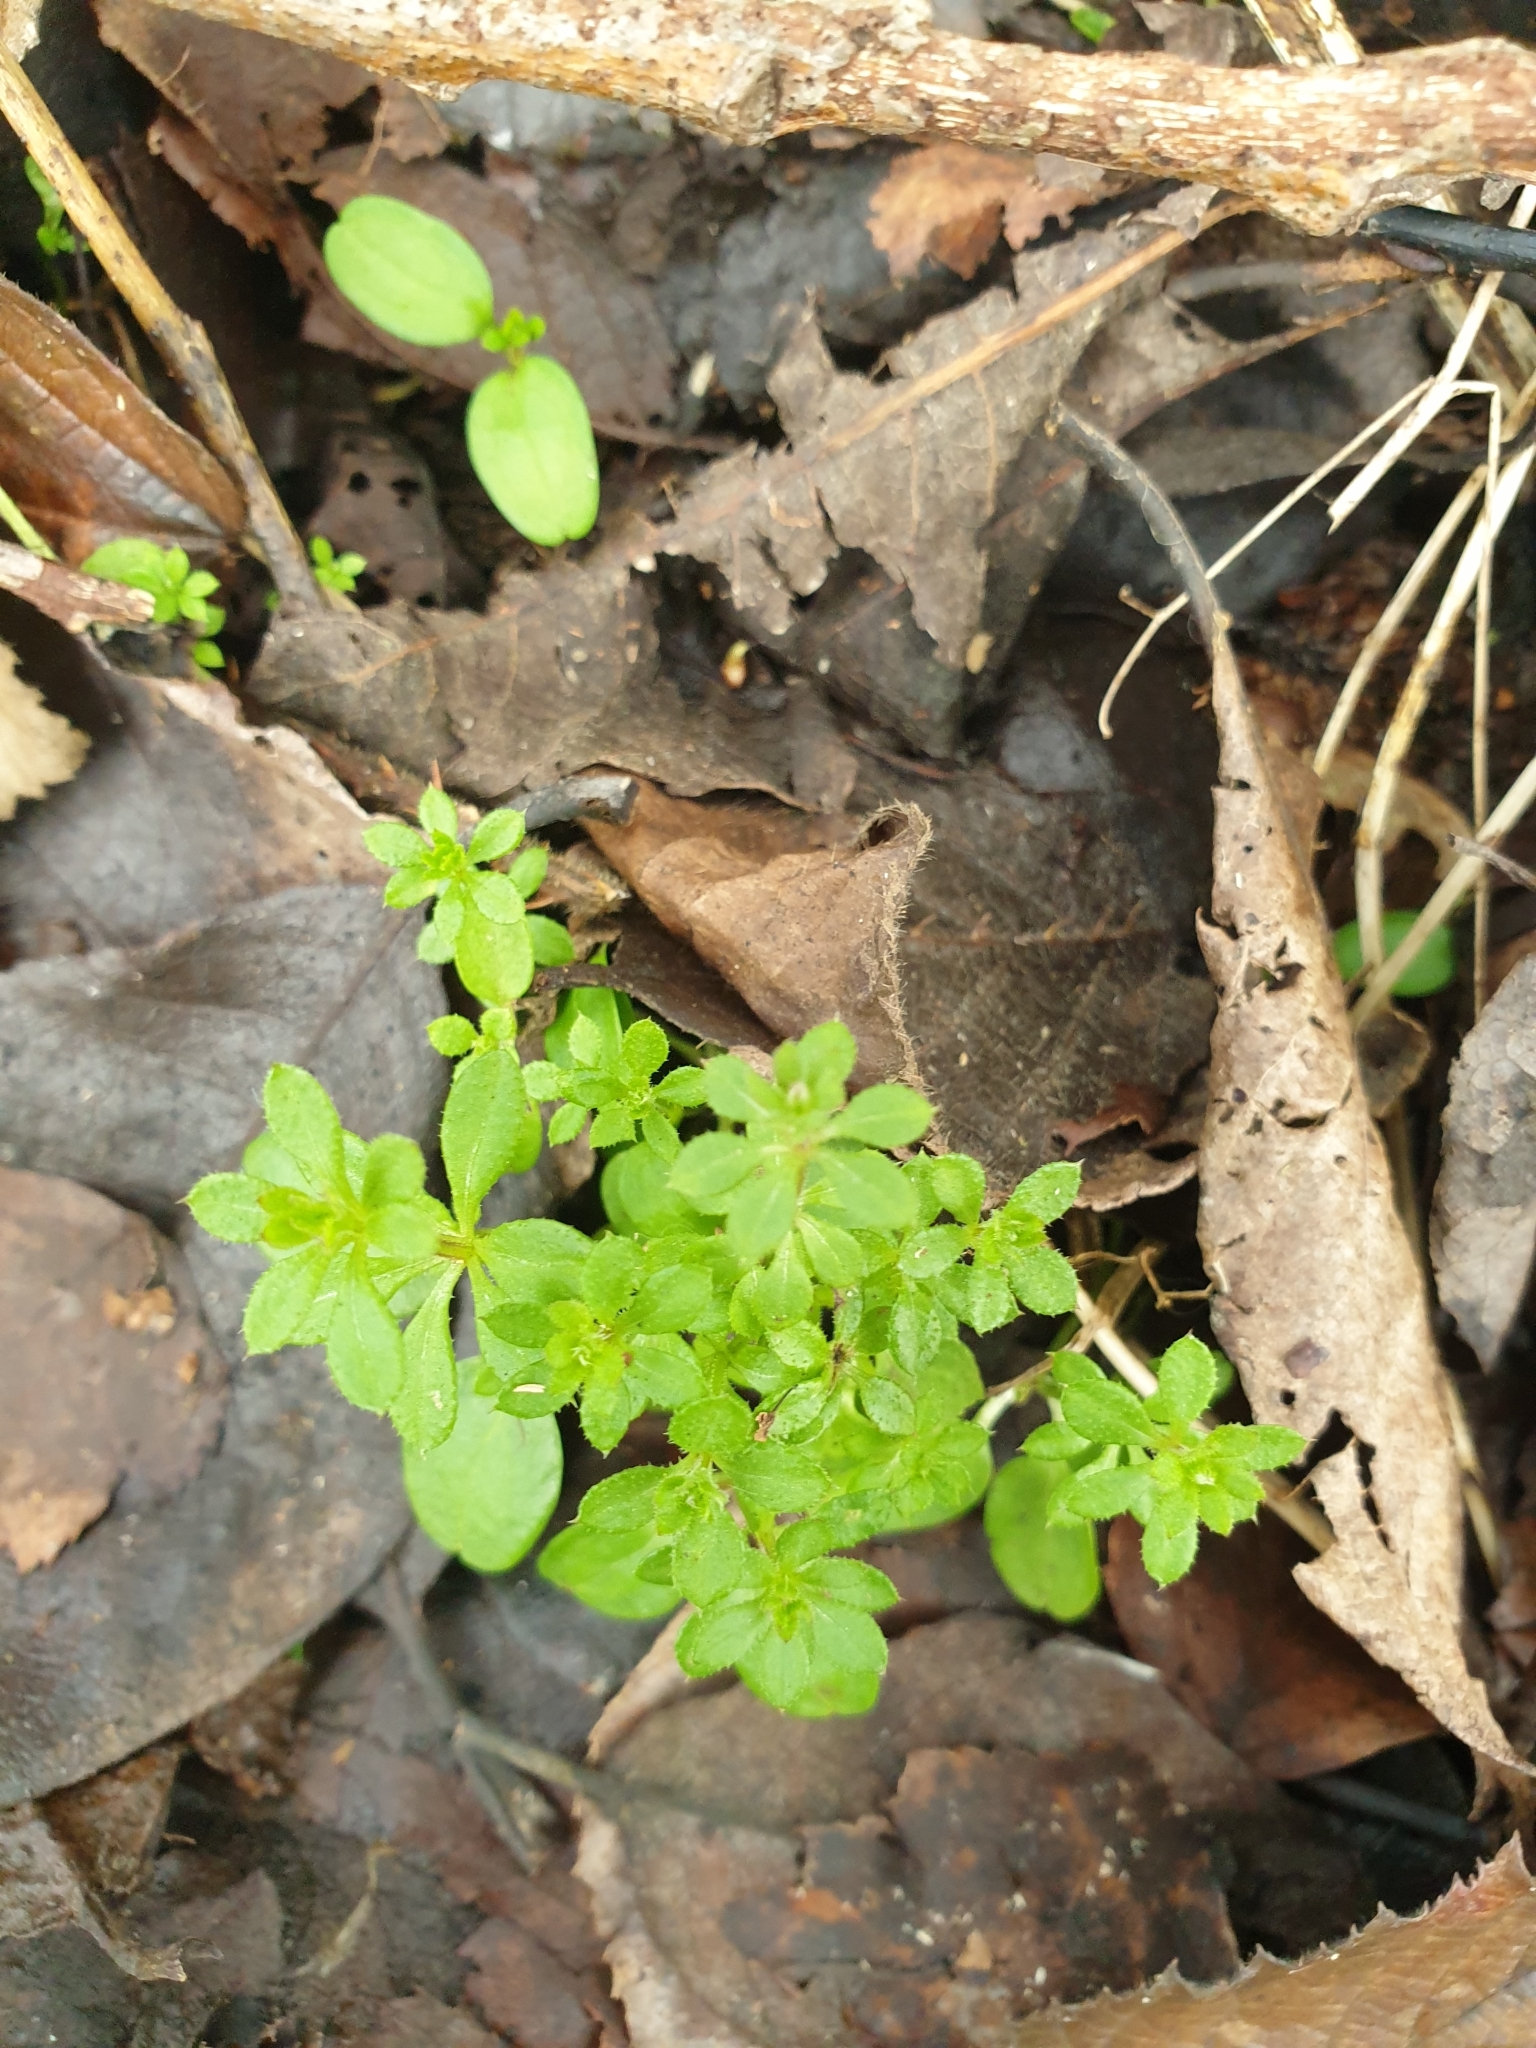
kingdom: Plantae
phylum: Tracheophyta
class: Magnoliopsida
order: Gentianales
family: Rubiaceae
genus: Galium
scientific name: Galium aparine
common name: Cleavers
